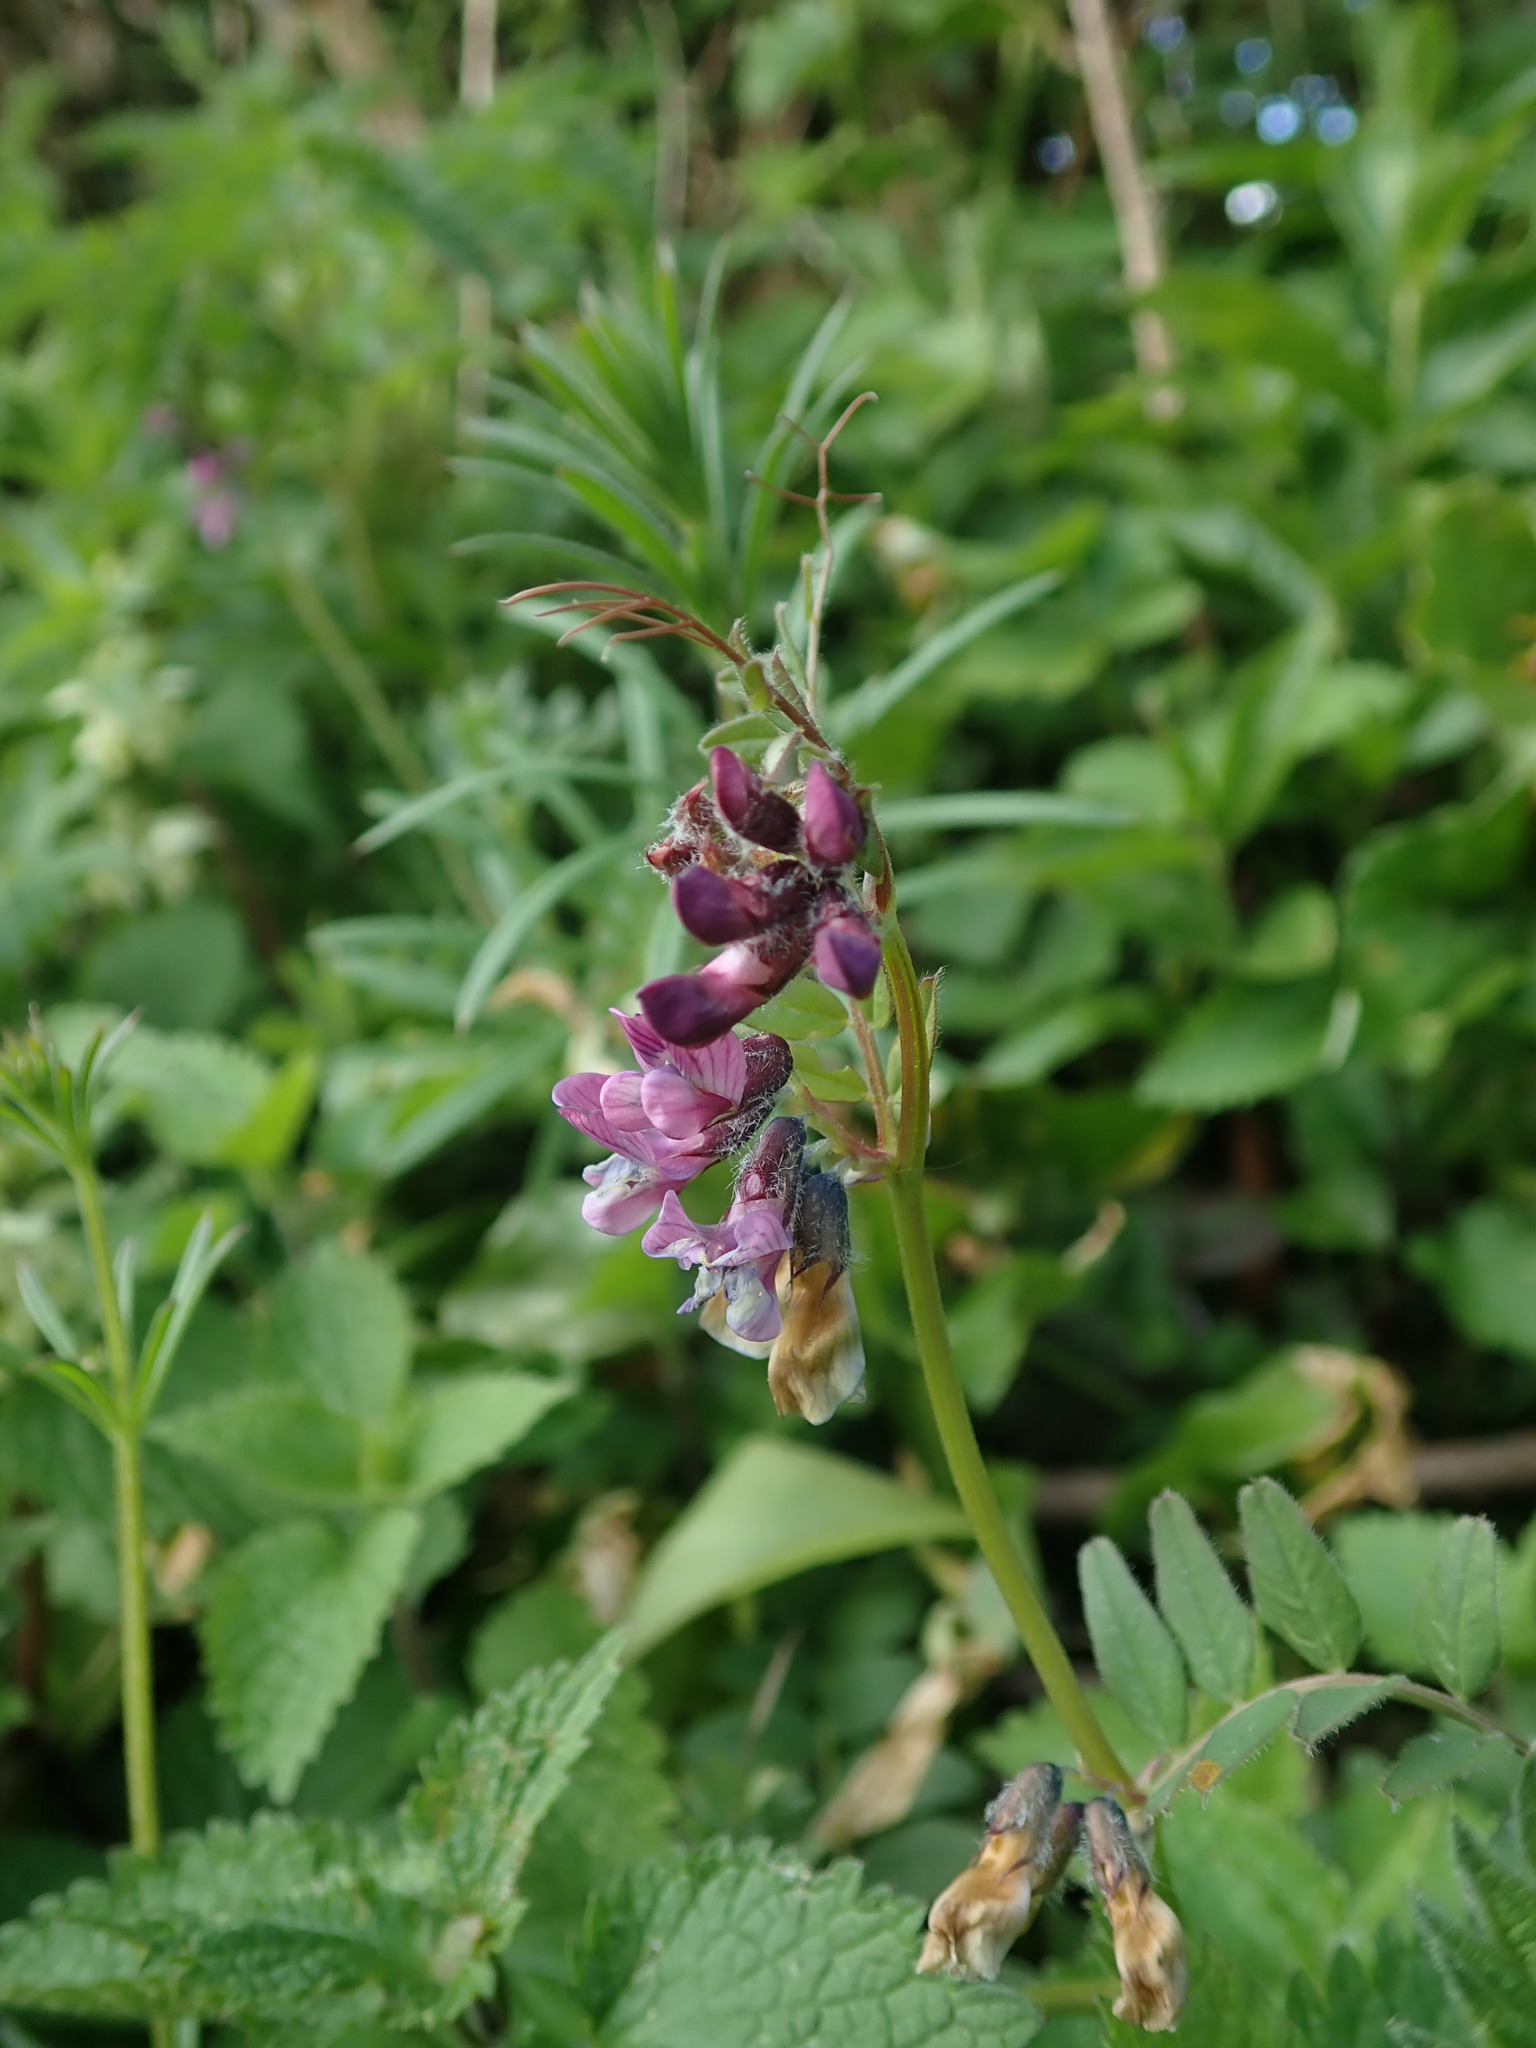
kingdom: Plantae
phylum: Tracheophyta
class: Magnoliopsida
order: Fabales
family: Fabaceae
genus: Vicia
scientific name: Vicia sepium
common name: Bush vetch
